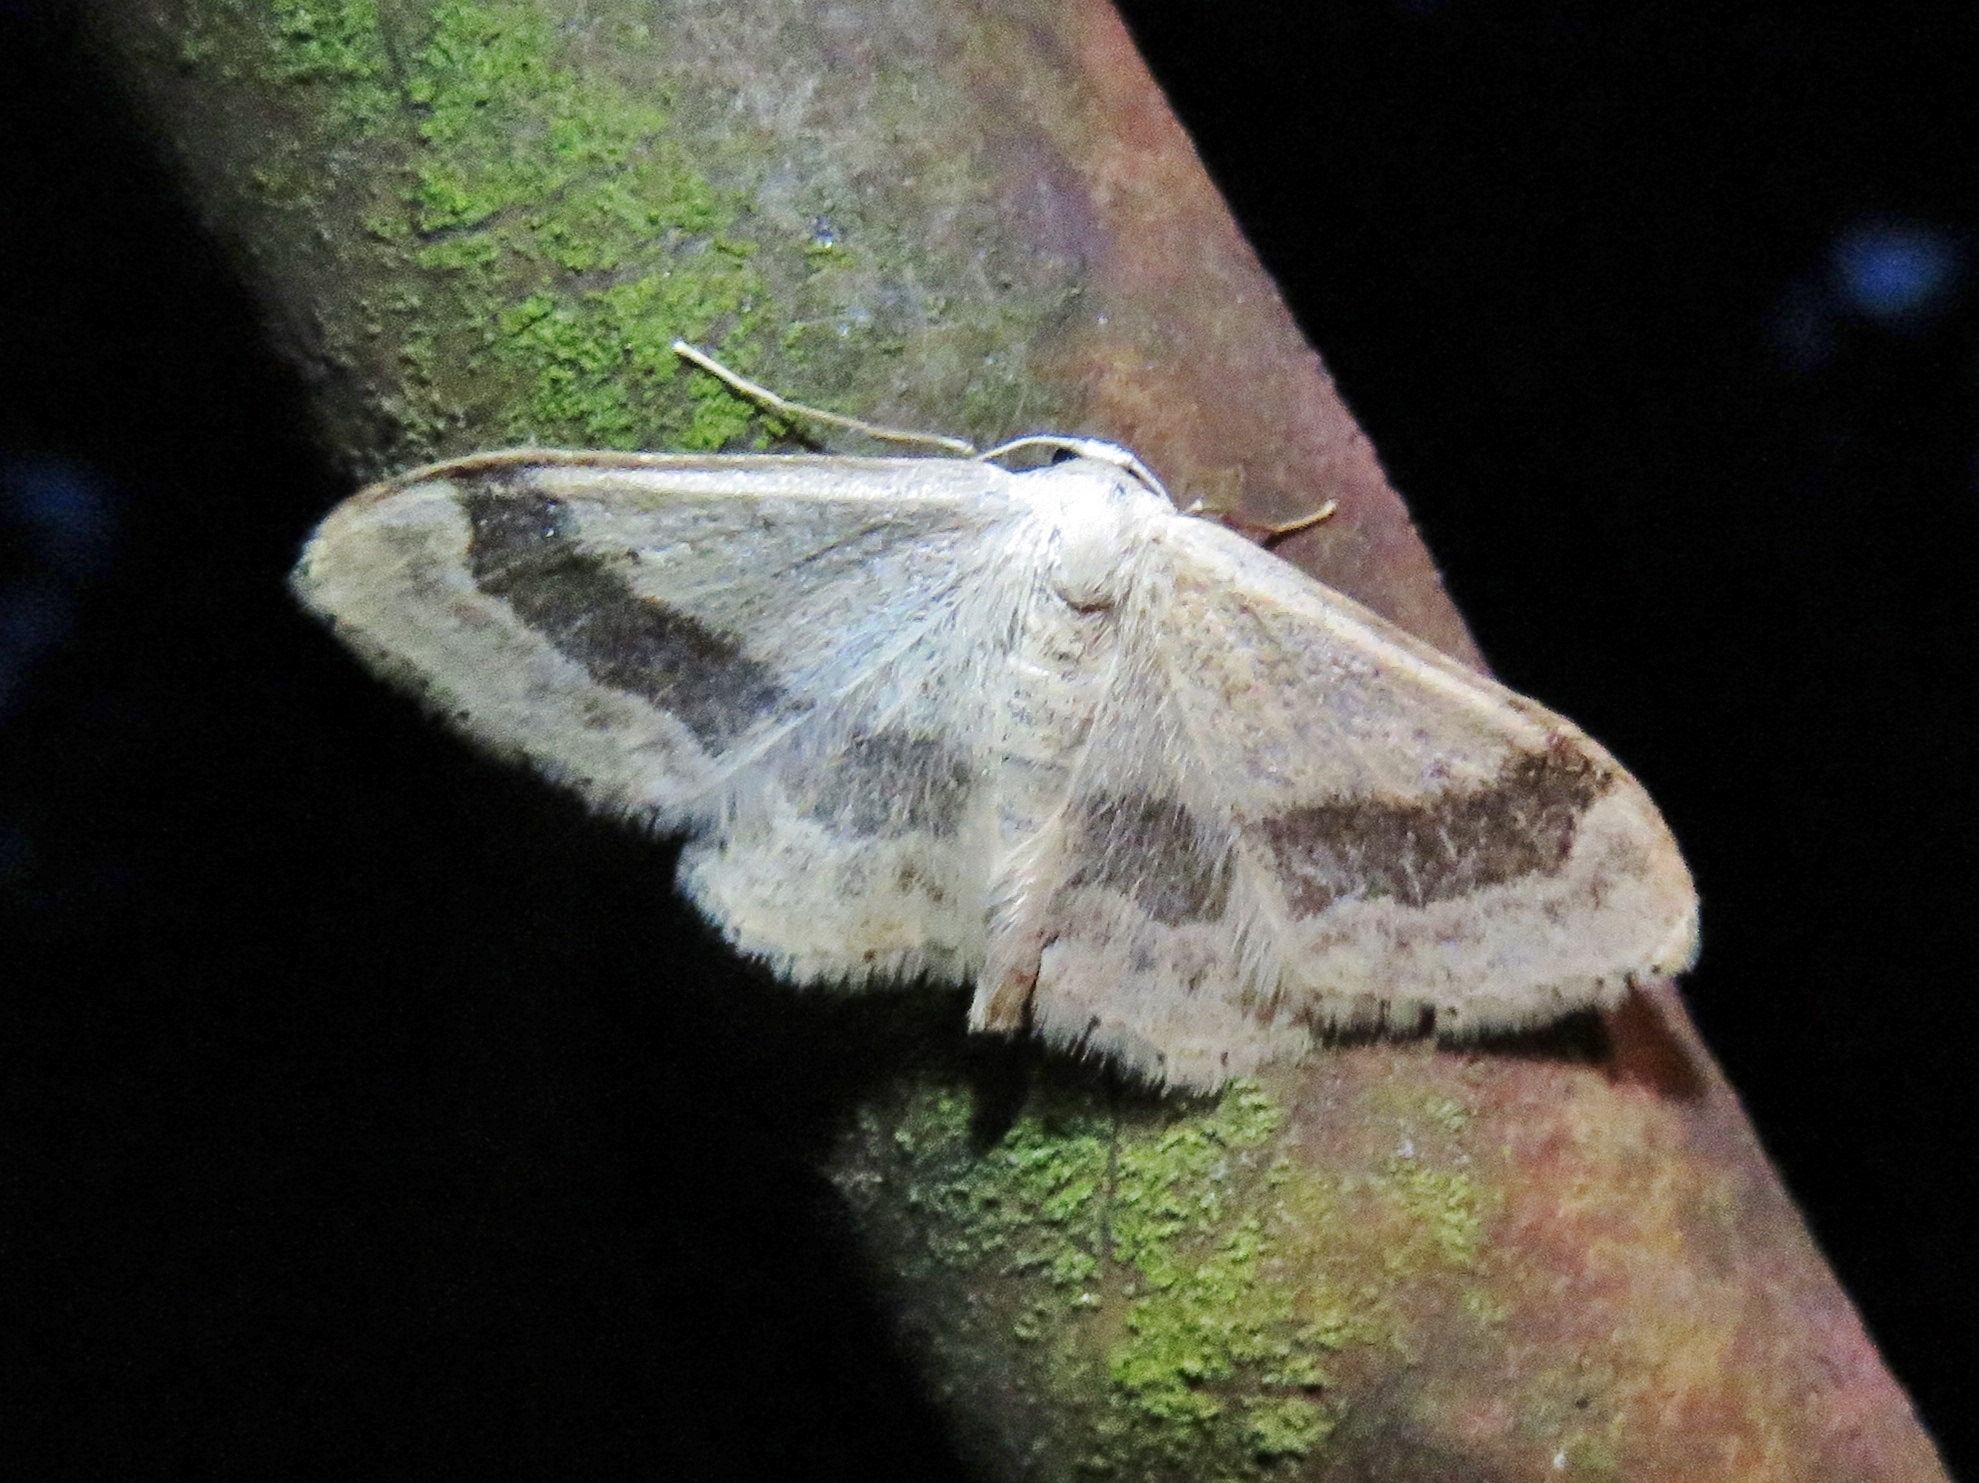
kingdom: Animalia
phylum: Arthropoda
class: Insecta
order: Lepidoptera
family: Geometridae
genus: Idaea
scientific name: Idaea aversata
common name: Riband wave
